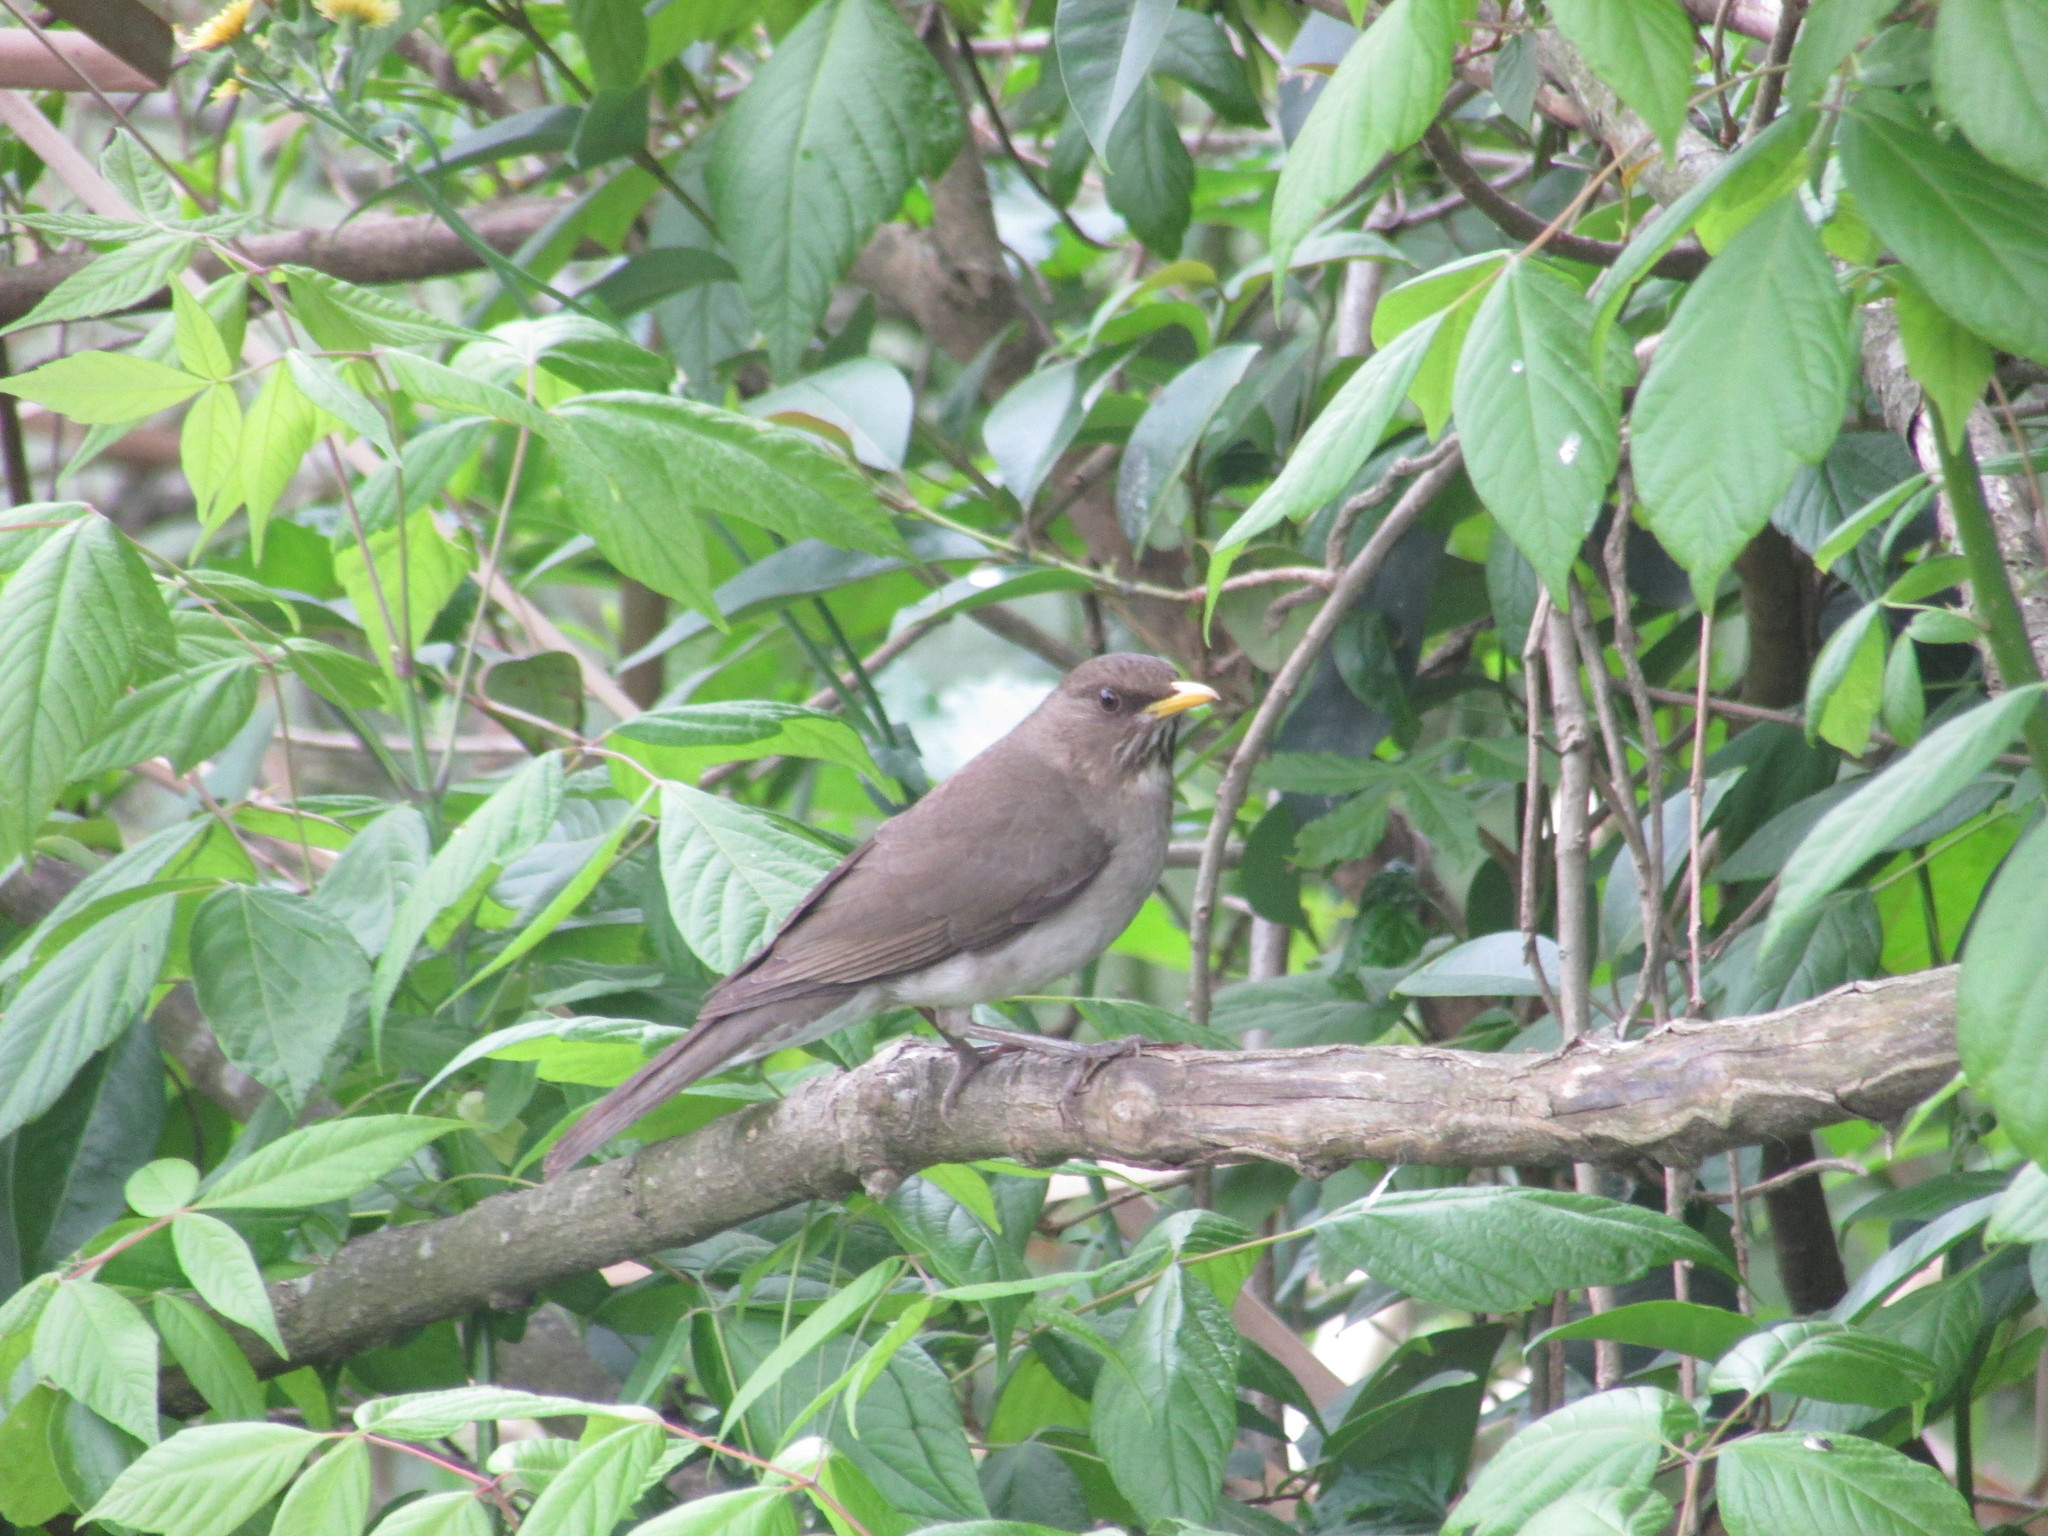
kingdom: Animalia
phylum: Chordata
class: Aves
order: Passeriformes
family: Turdidae
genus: Turdus
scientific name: Turdus amaurochalinus
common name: Creamy-bellied thrush
